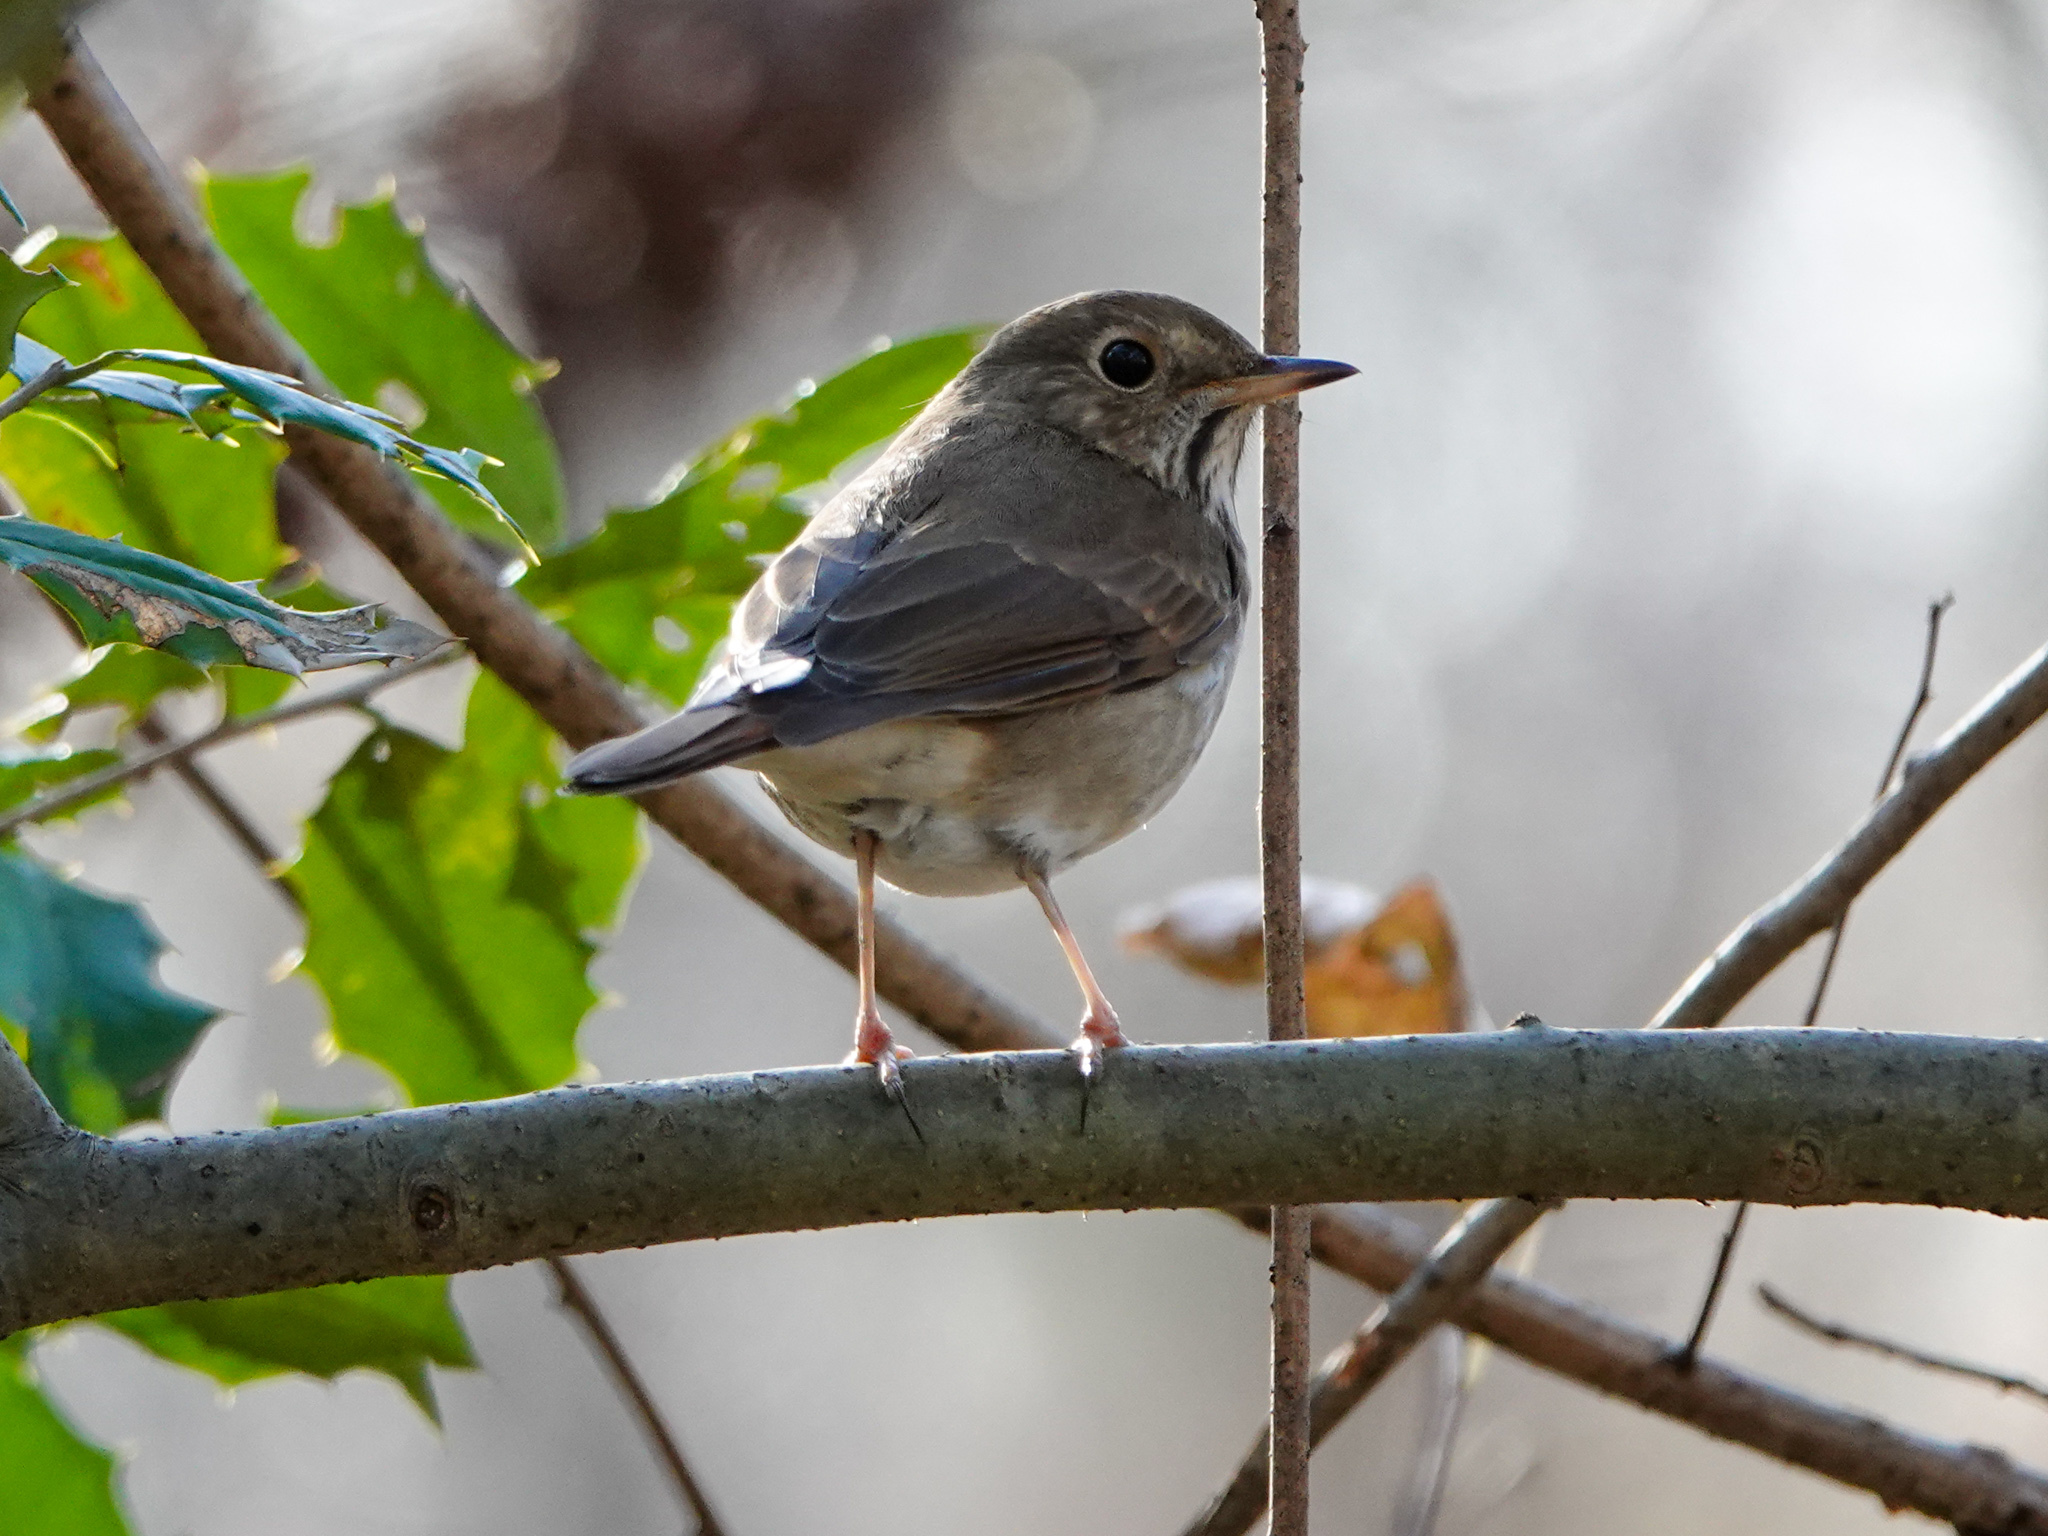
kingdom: Animalia
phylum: Chordata
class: Aves
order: Passeriformes
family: Turdidae
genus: Catharus
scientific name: Catharus guttatus
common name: Hermit thrush
